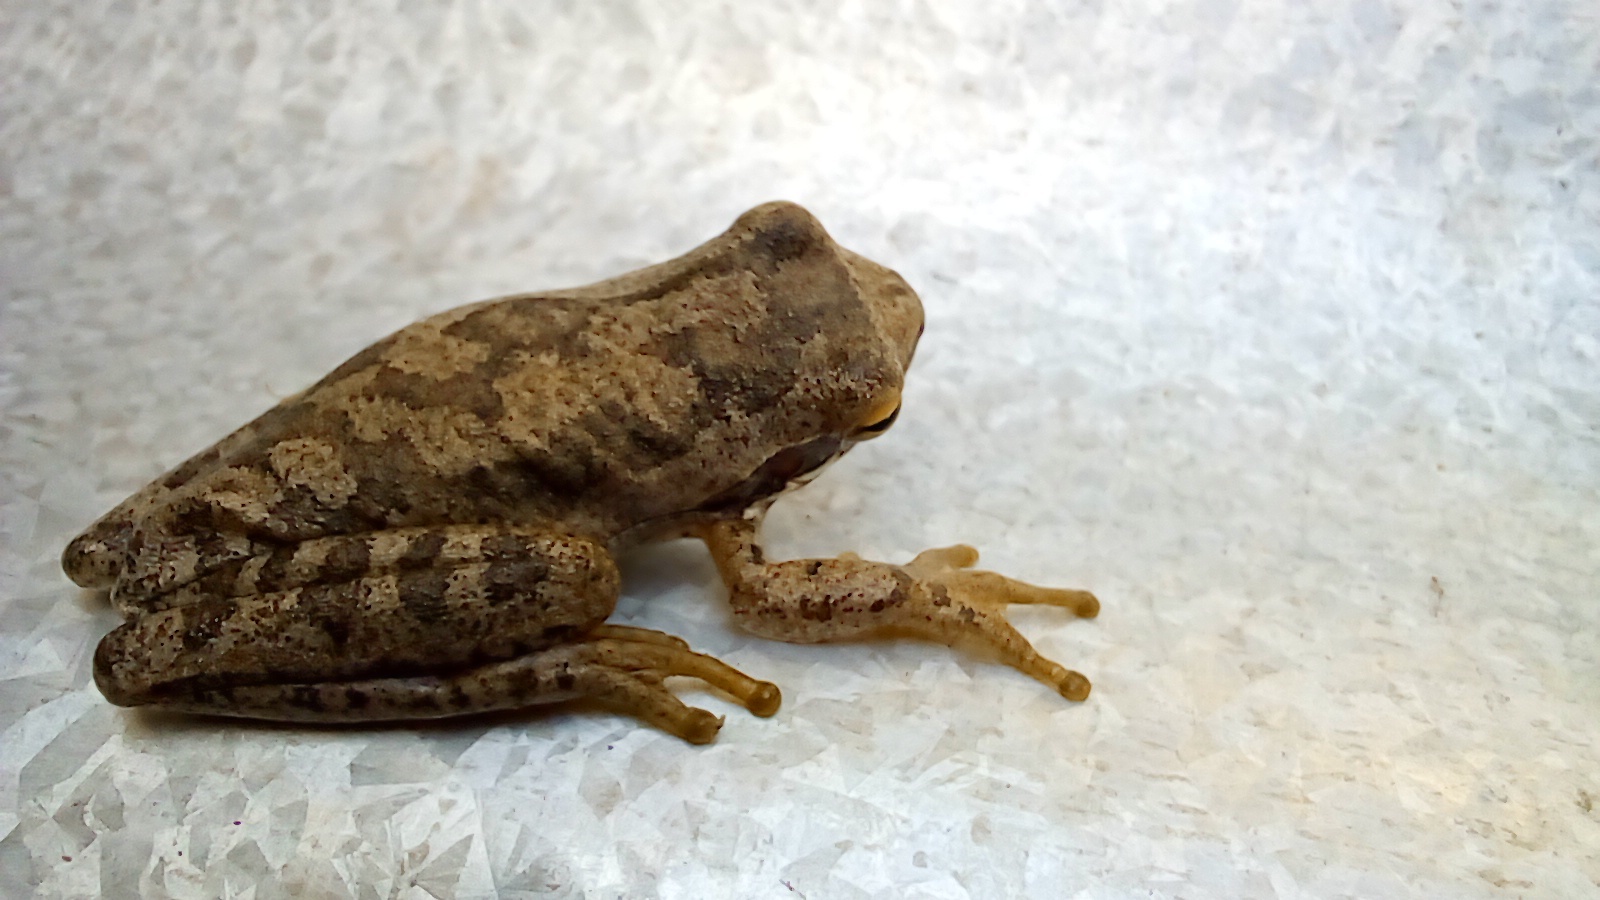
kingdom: Animalia
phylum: Chordata
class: Amphibia
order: Anura
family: Hylidae
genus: Boana
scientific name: Boana pulchella
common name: Montevideo treefrog
